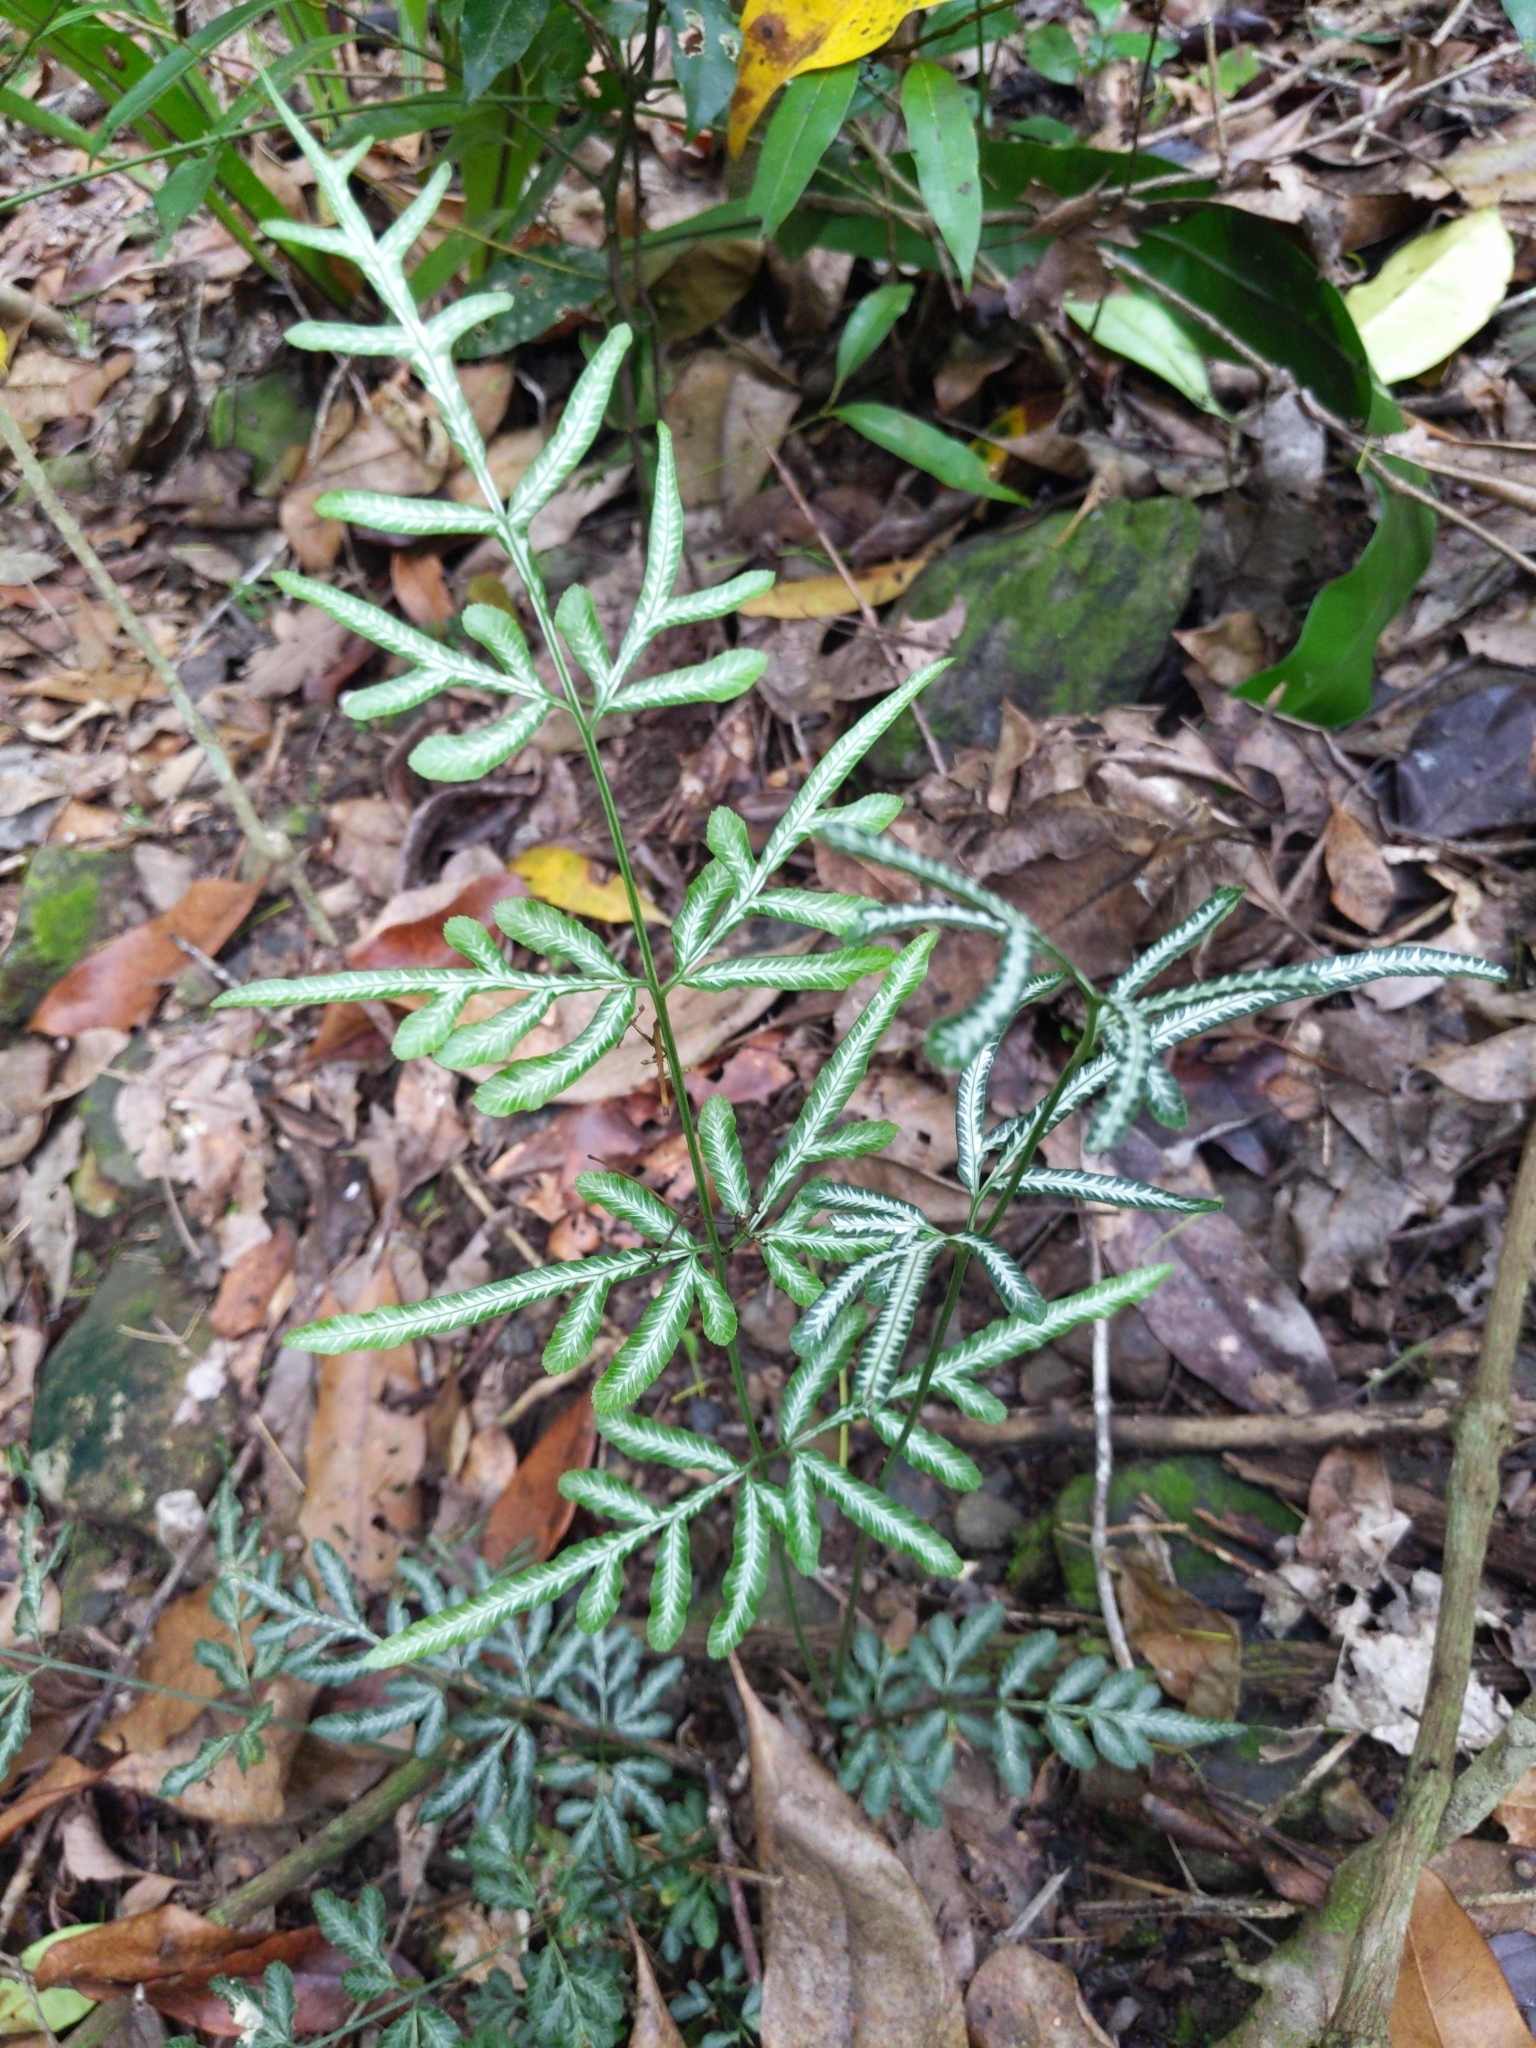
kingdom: Plantae
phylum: Tracheophyta
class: Polypodiopsida
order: Polypodiales
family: Pteridaceae
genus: Pteris
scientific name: Pteris ensiformis
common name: Sword brake
